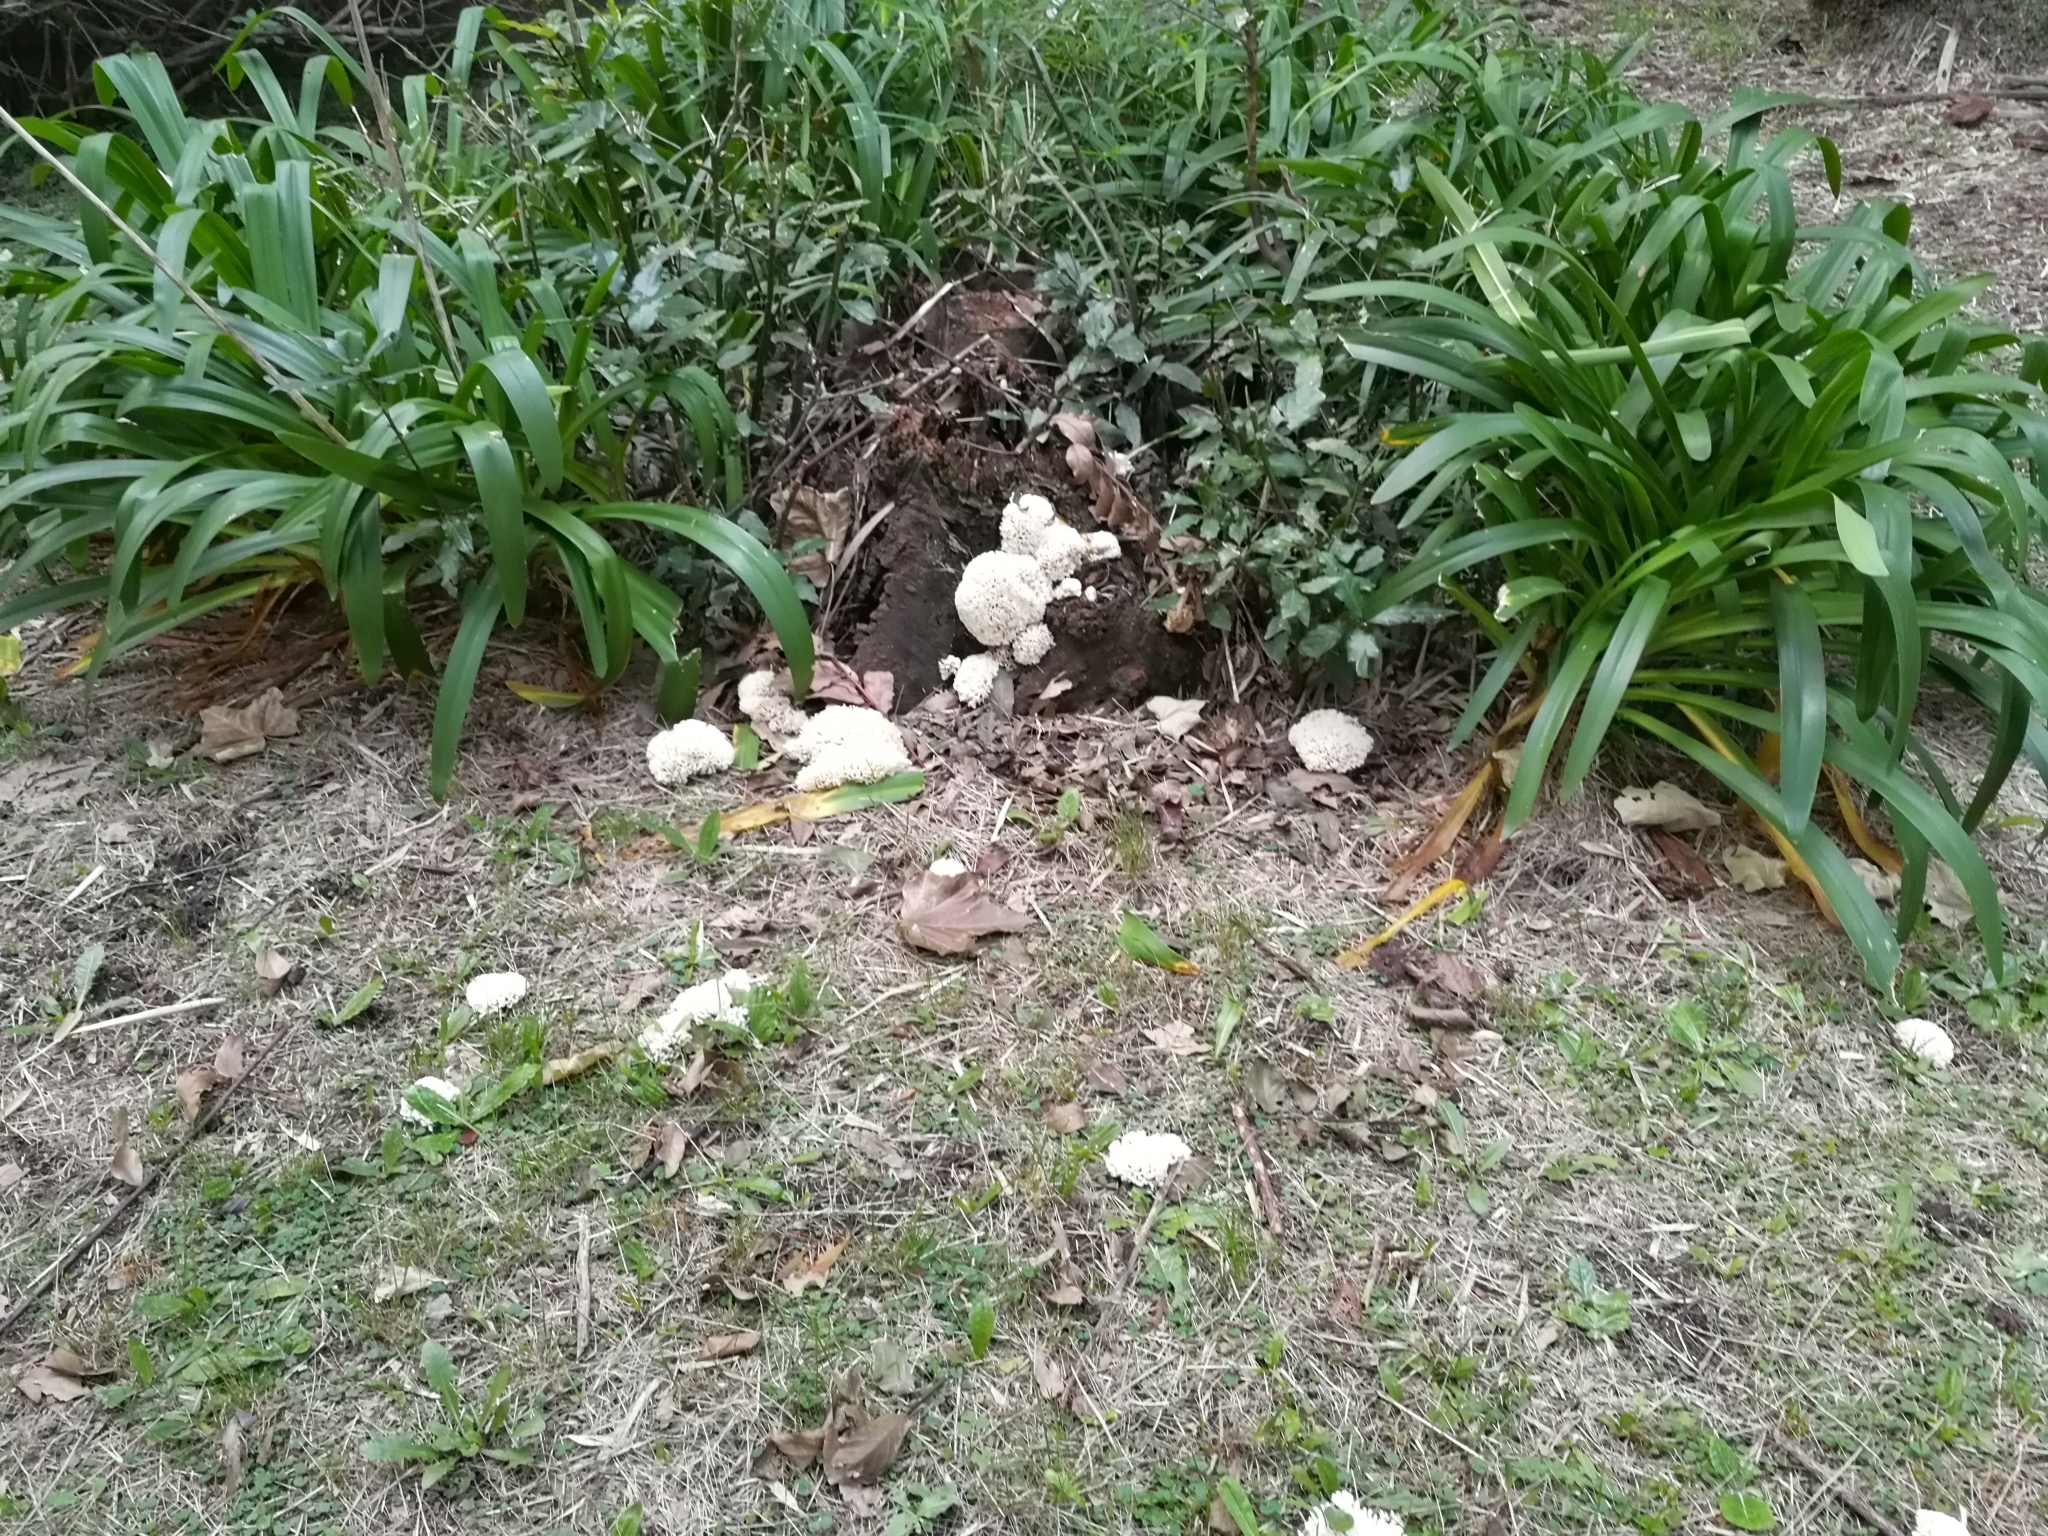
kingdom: Fungi
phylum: Basidiomycota
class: Agaricomycetes
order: Polyporales
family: Irpicaceae
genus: Irpex
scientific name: Irpex rosettiformis
